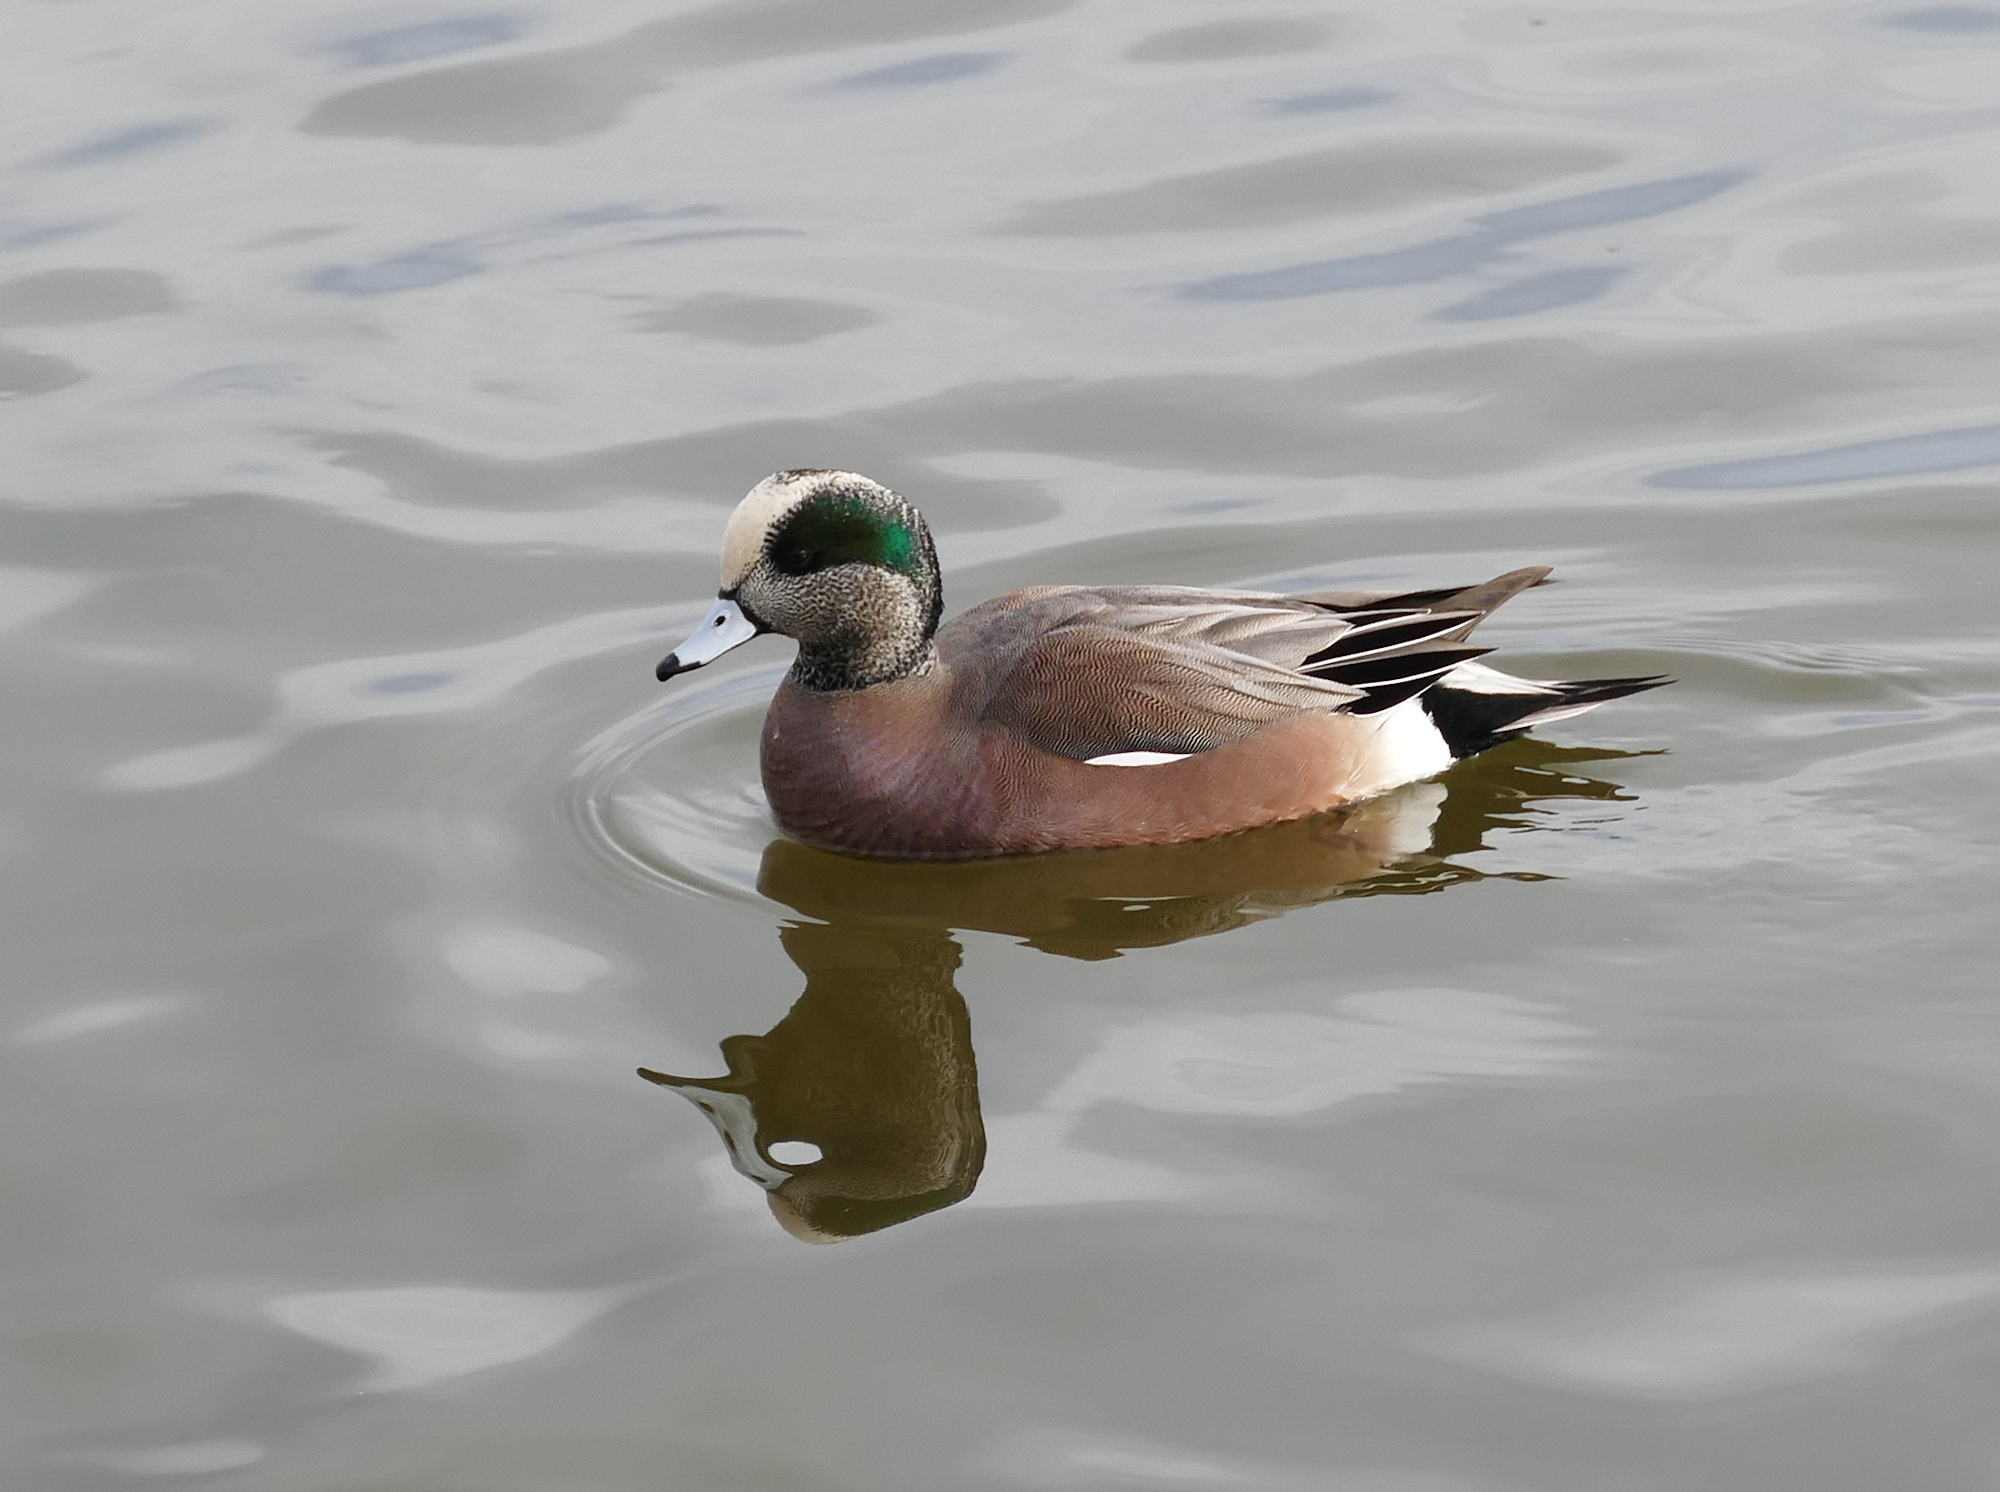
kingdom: Animalia
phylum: Chordata
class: Aves
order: Anseriformes
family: Anatidae
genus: Mareca
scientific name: Mareca americana
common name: American wigeon
